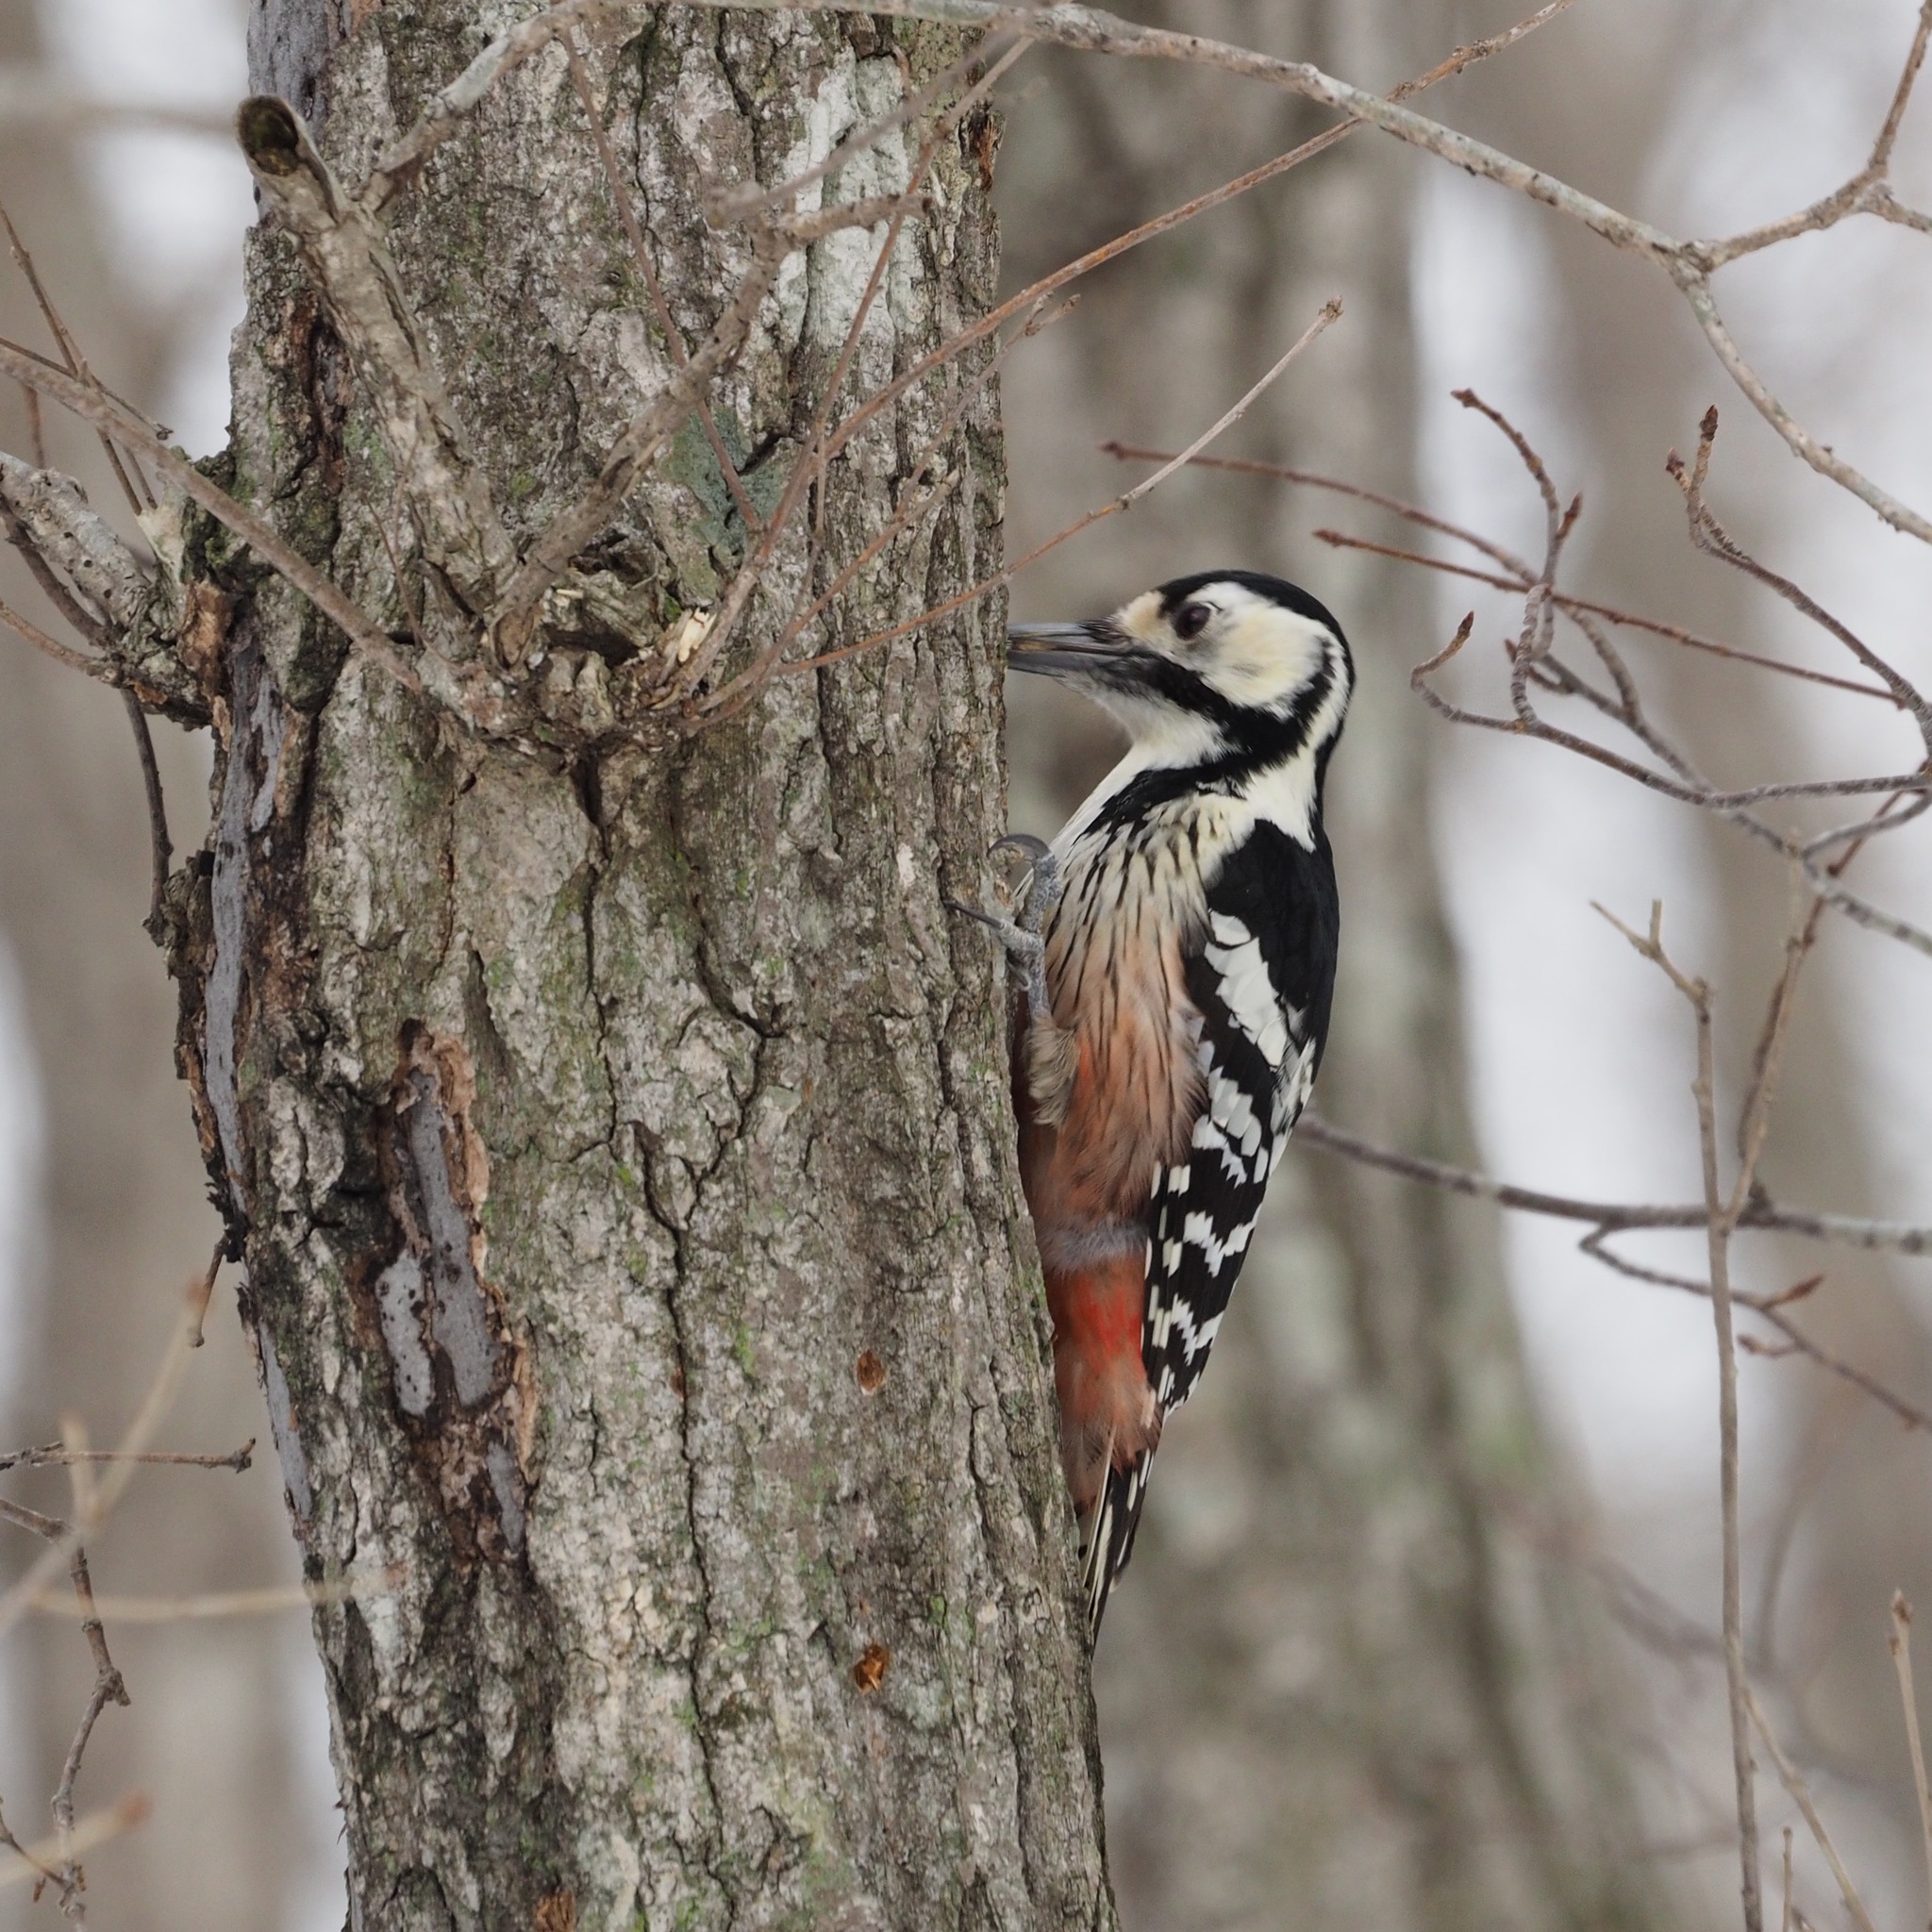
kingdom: Animalia
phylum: Chordata
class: Aves
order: Piciformes
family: Picidae
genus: Dendrocopos
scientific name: Dendrocopos leucotos
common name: White-backed woodpecker
